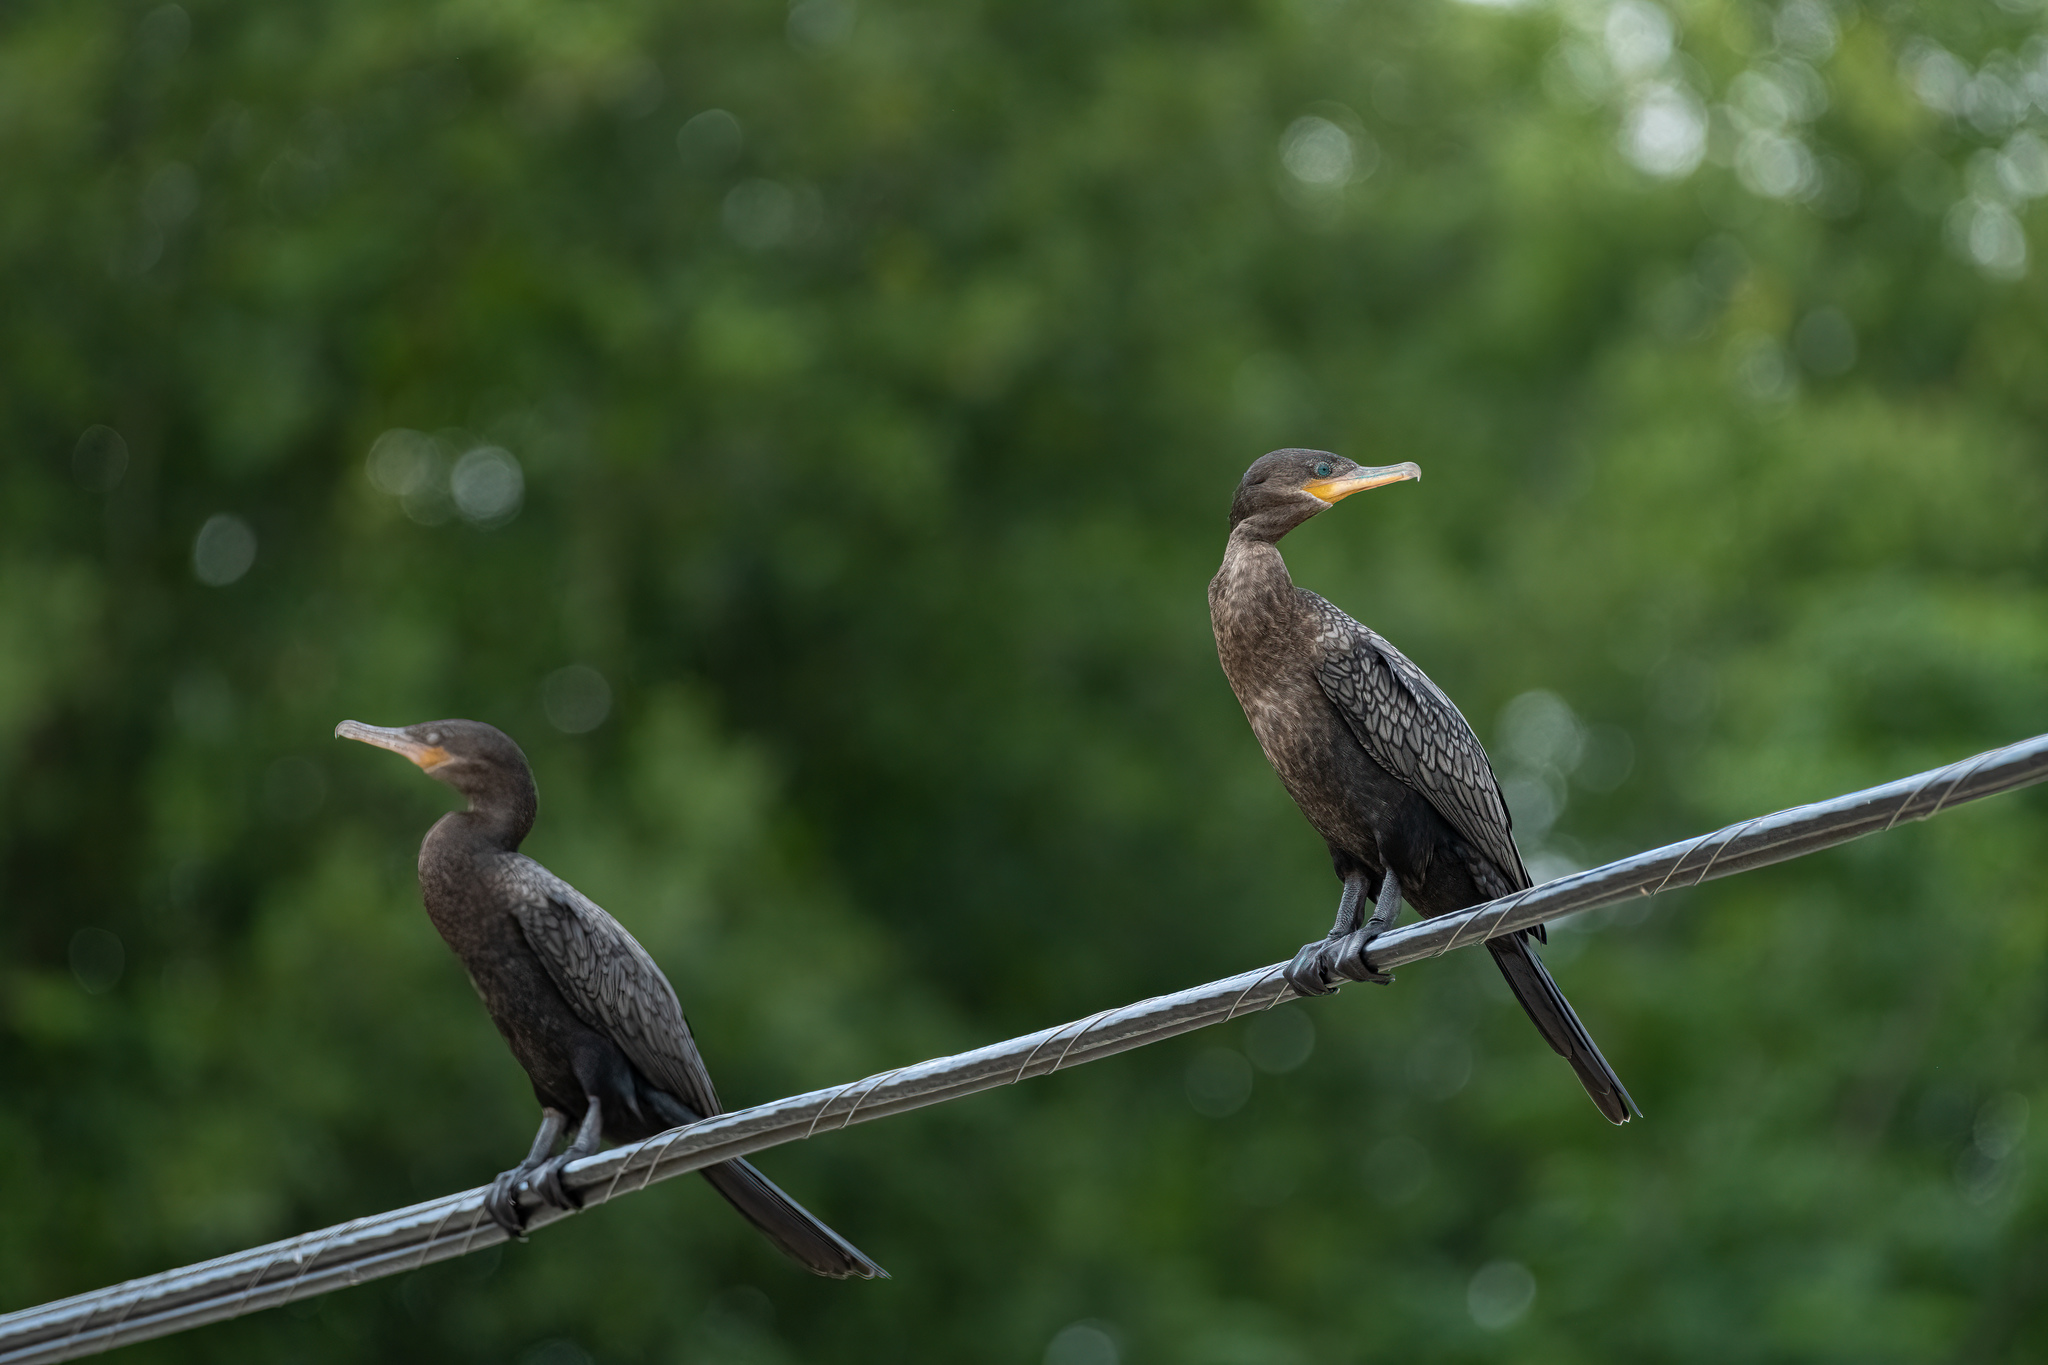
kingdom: Animalia
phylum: Chordata
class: Aves
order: Suliformes
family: Phalacrocoracidae
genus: Phalacrocorax
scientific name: Phalacrocorax brasilianus
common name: Neotropic cormorant
